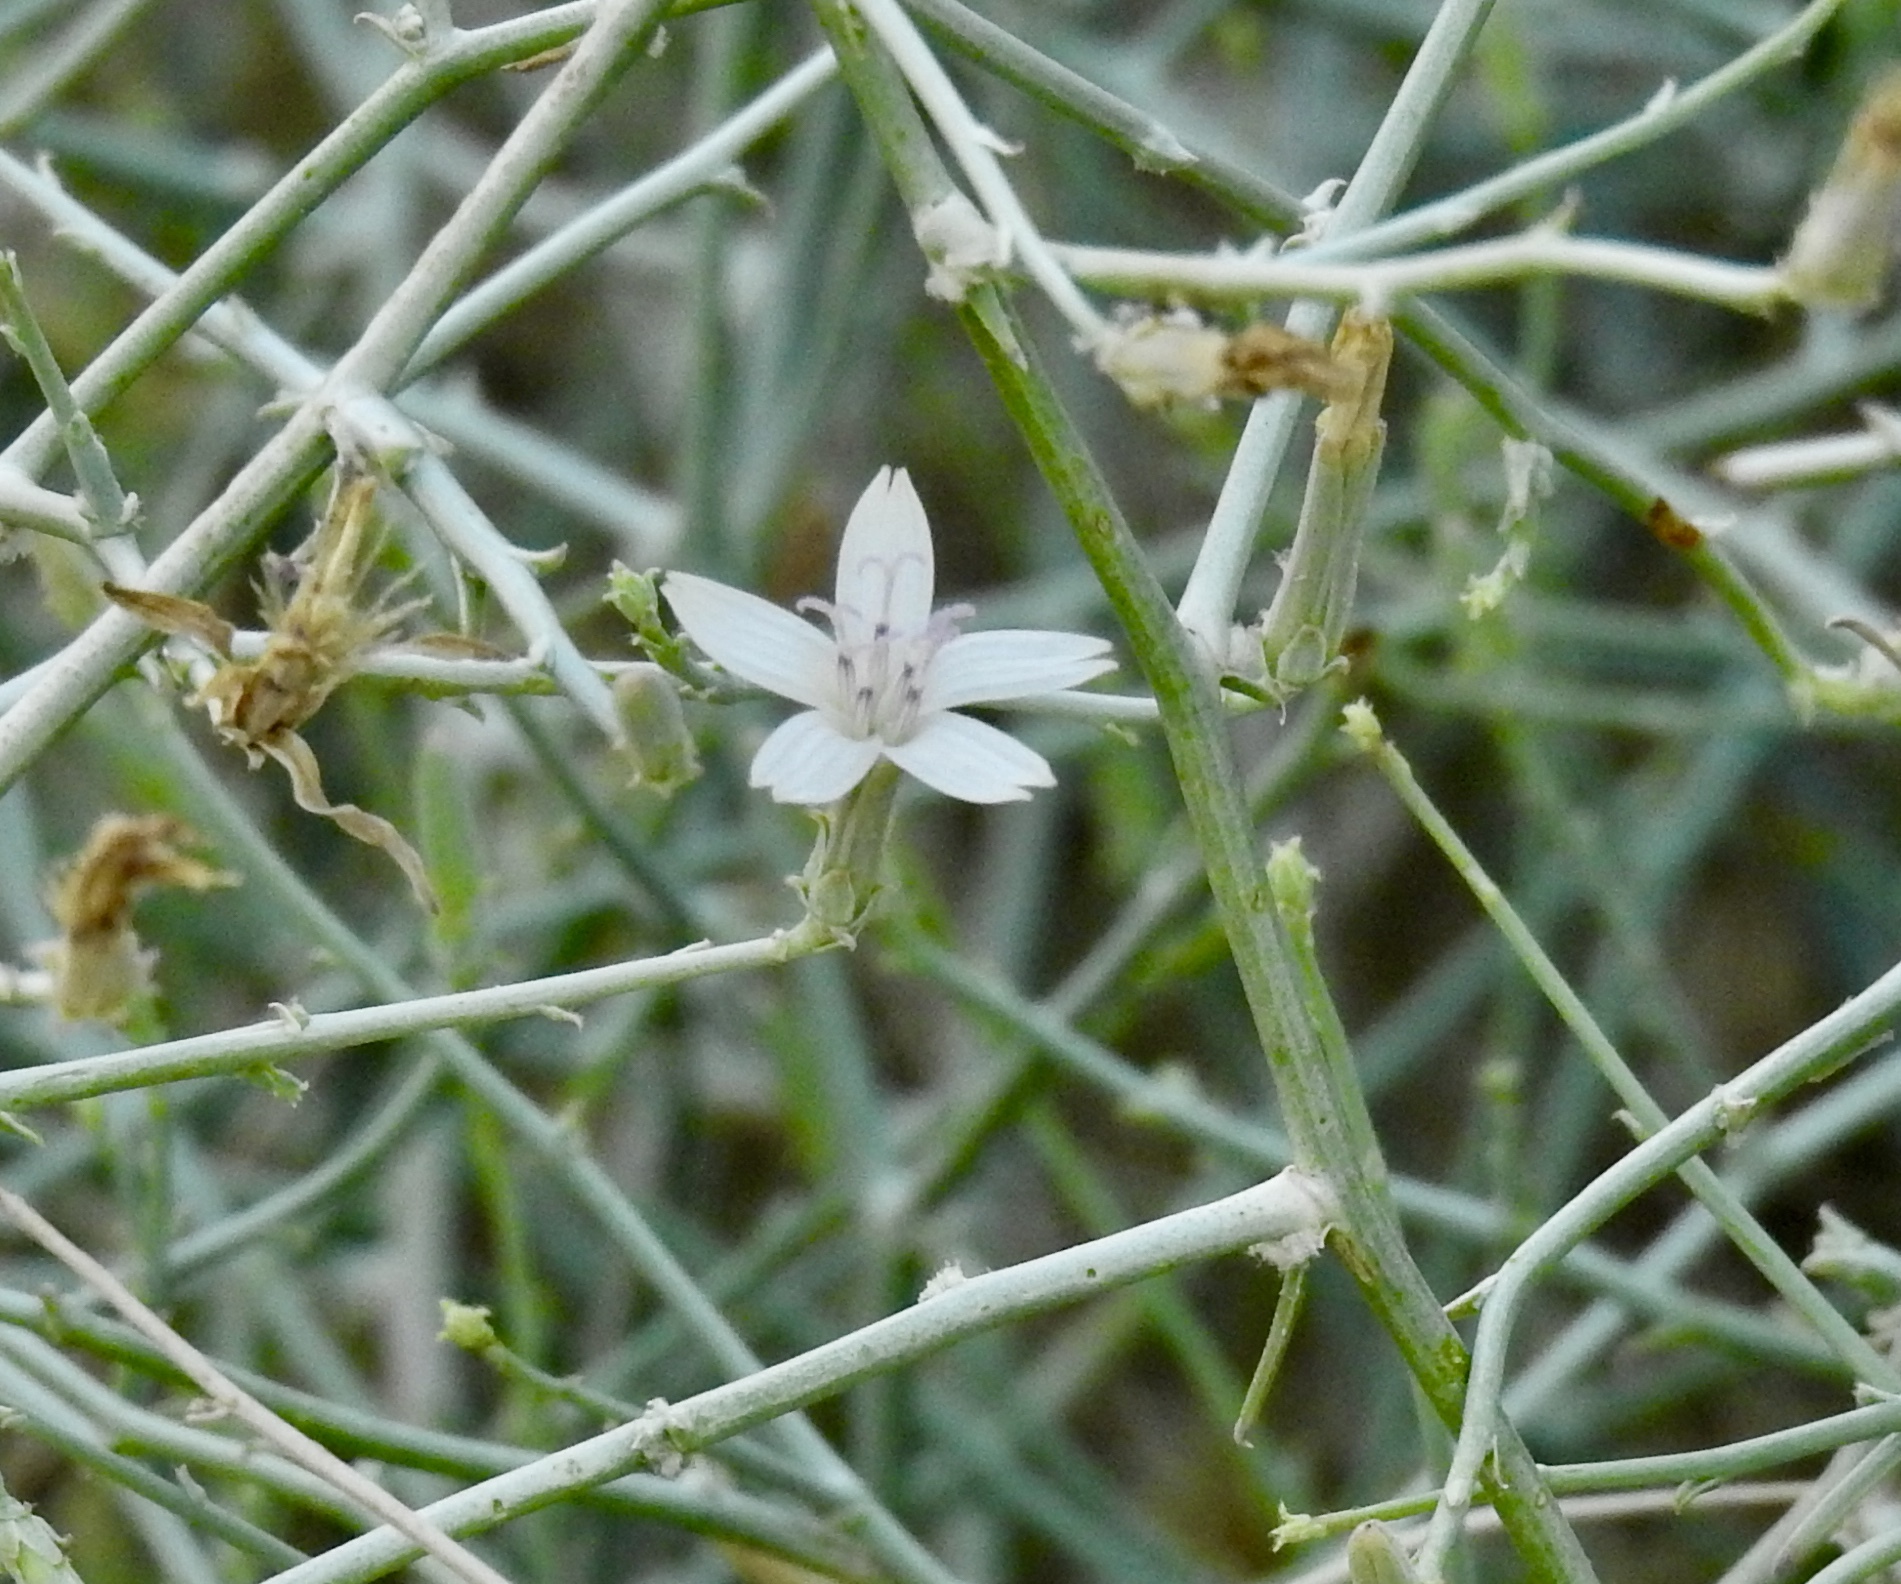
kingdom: Plantae
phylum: Tracheophyta
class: Magnoliopsida
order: Asterales
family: Asteraceae
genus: Stephanomeria
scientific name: Stephanomeria pauciflora
